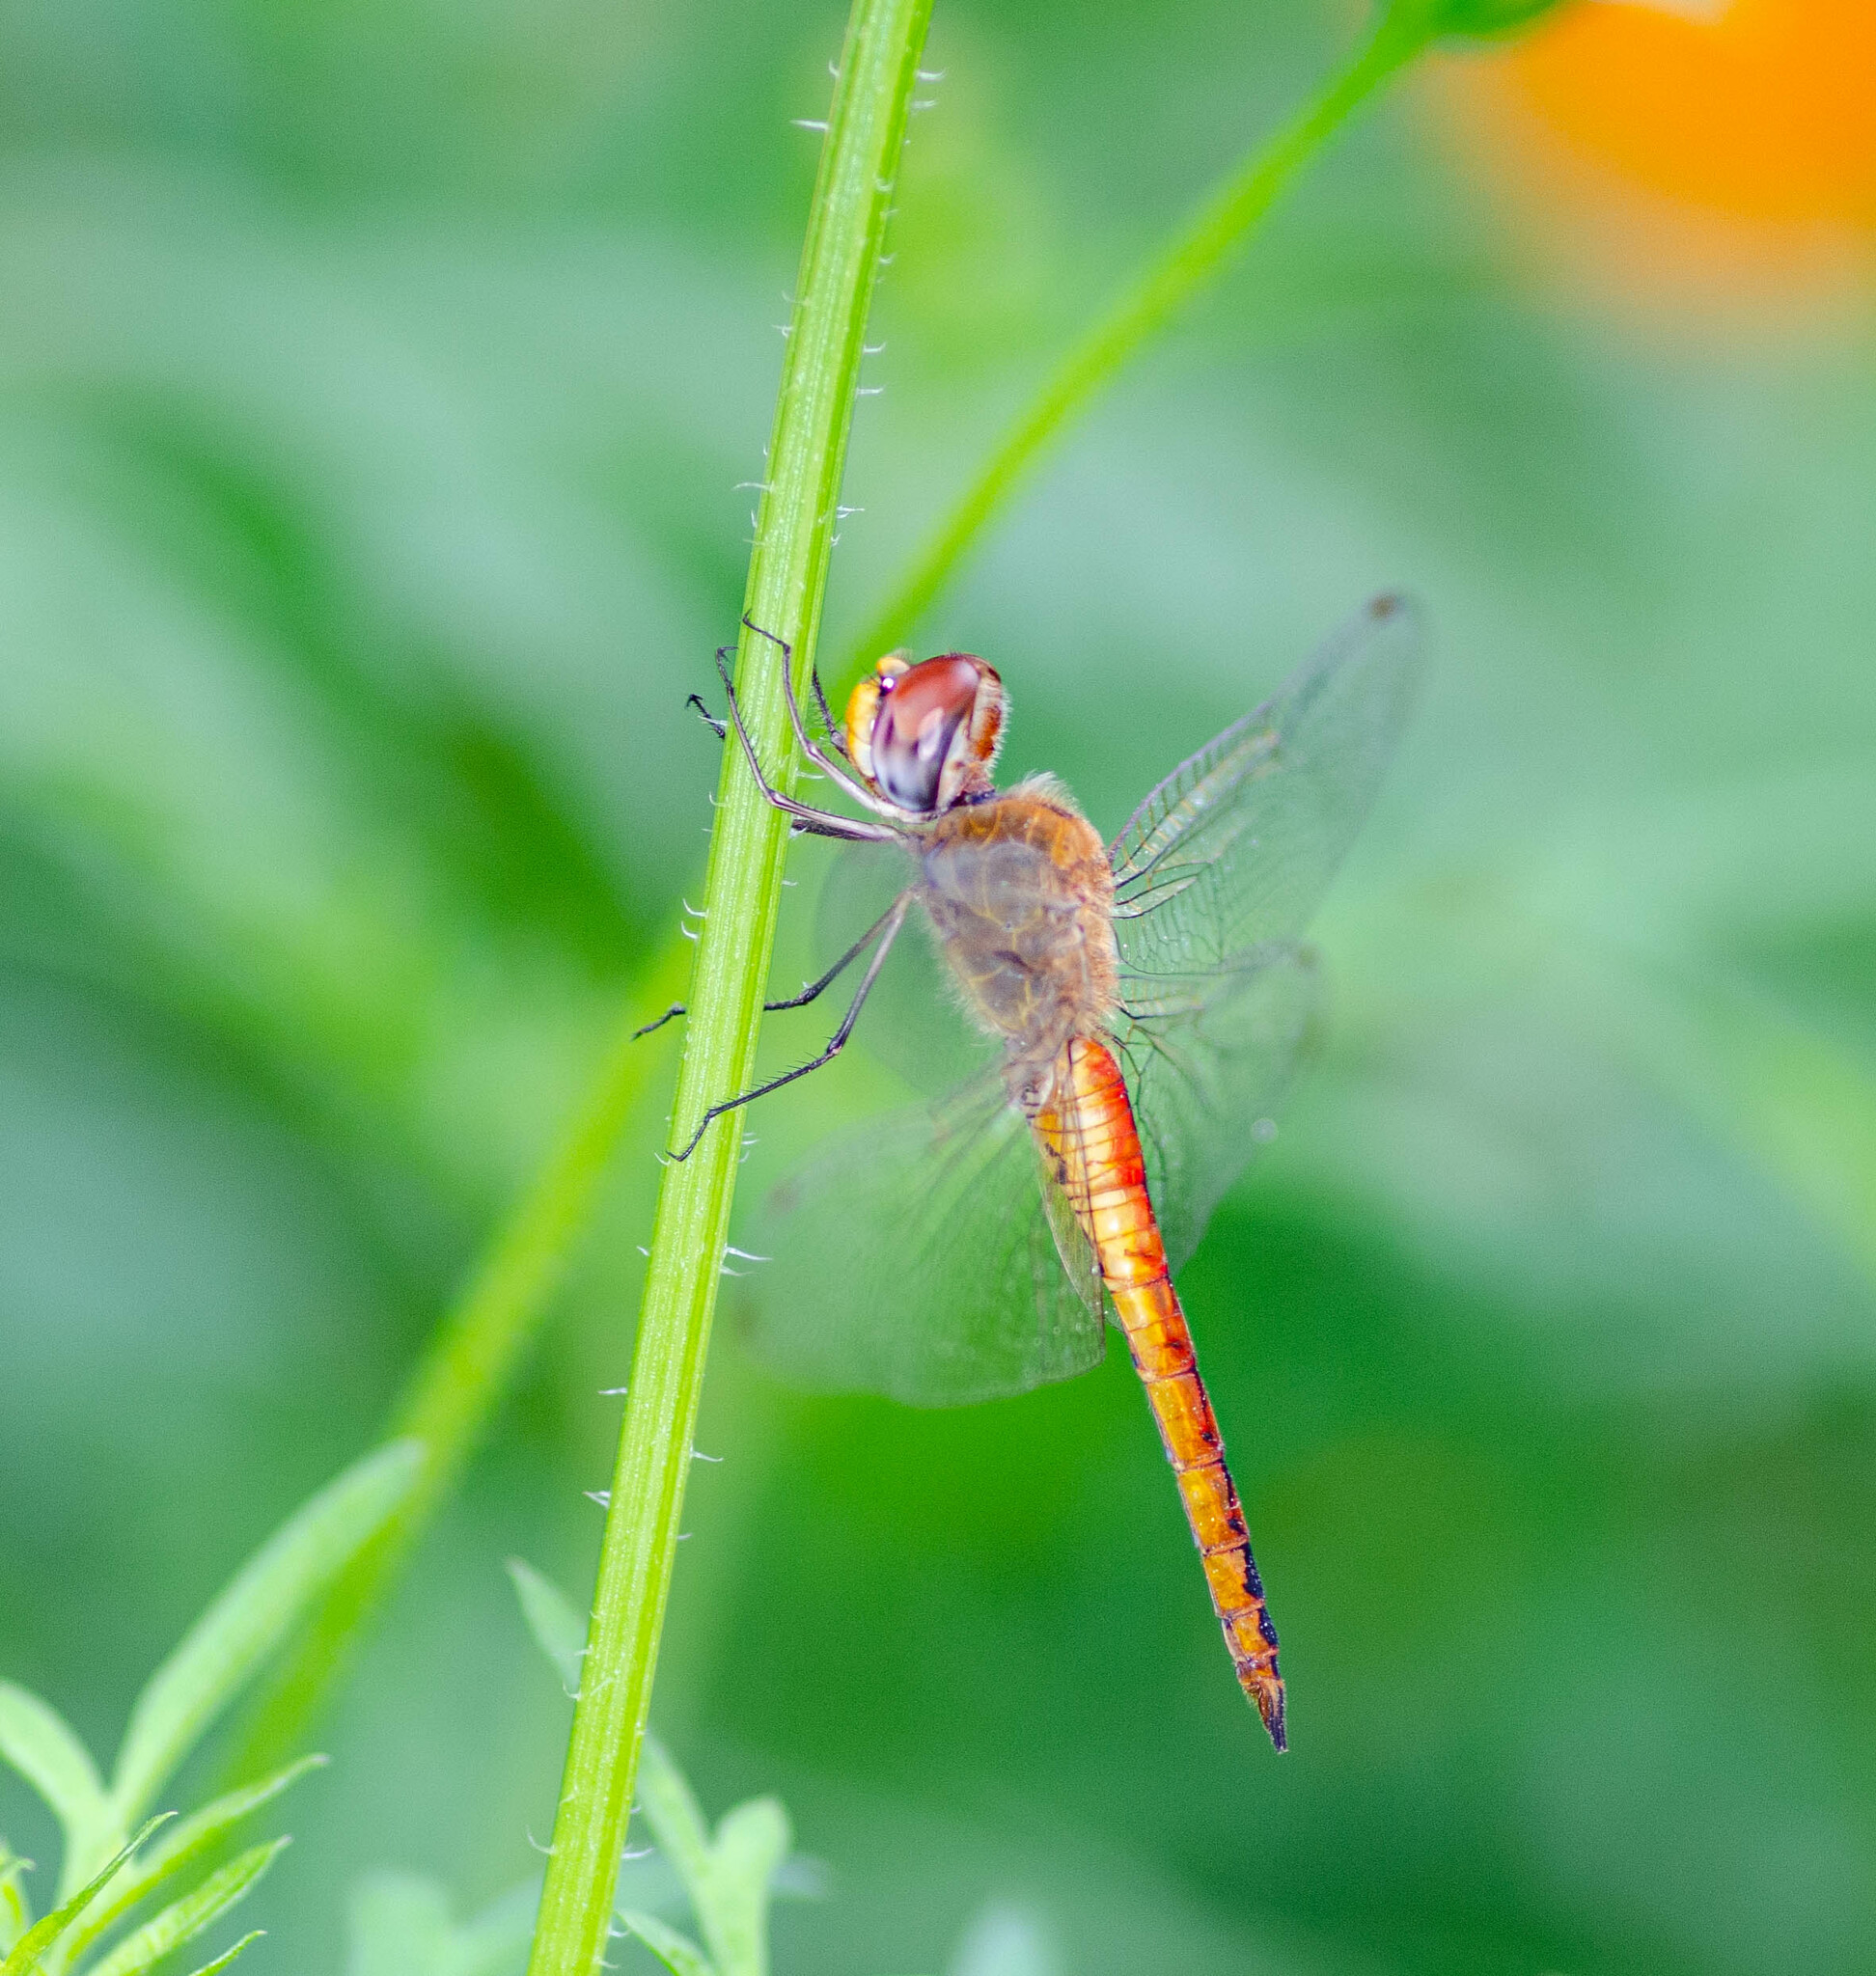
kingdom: Animalia
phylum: Arthropoda
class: Insecta
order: Odonata
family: Libellulidae
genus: Pantala
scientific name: Pantala flavescens
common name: Wandering glider
